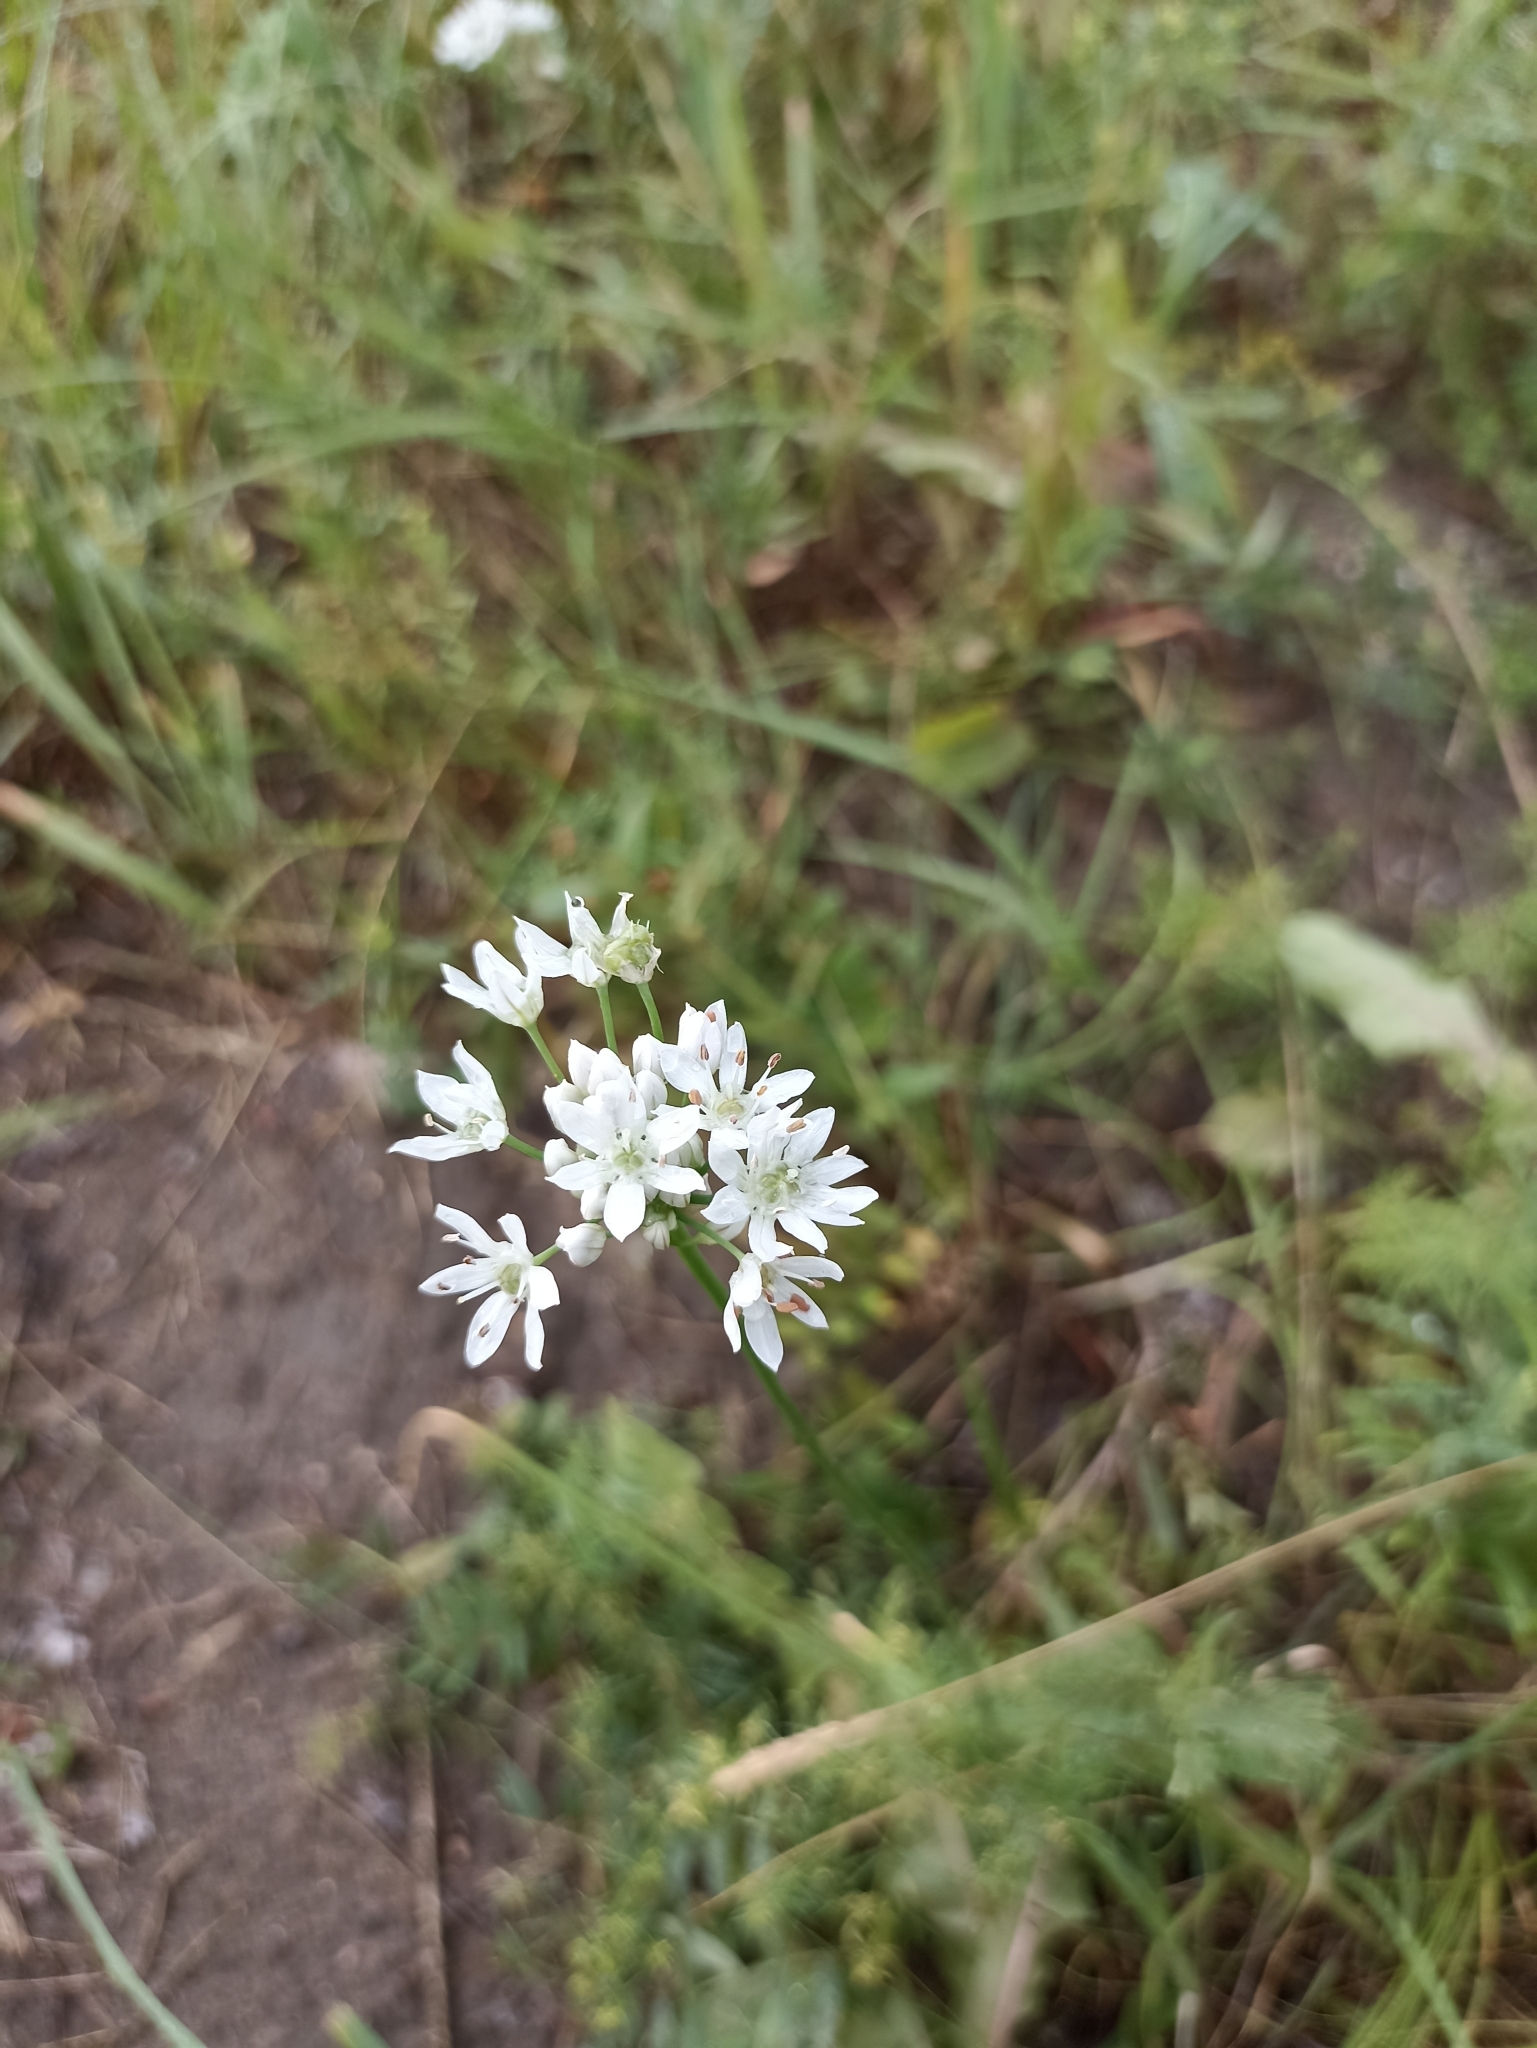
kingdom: Plantae
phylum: Tracheophyta
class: Liliopsida
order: Asparagales
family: Amaryllidaceae
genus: Allium
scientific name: Allium ramosum
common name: Fragrant garlic
